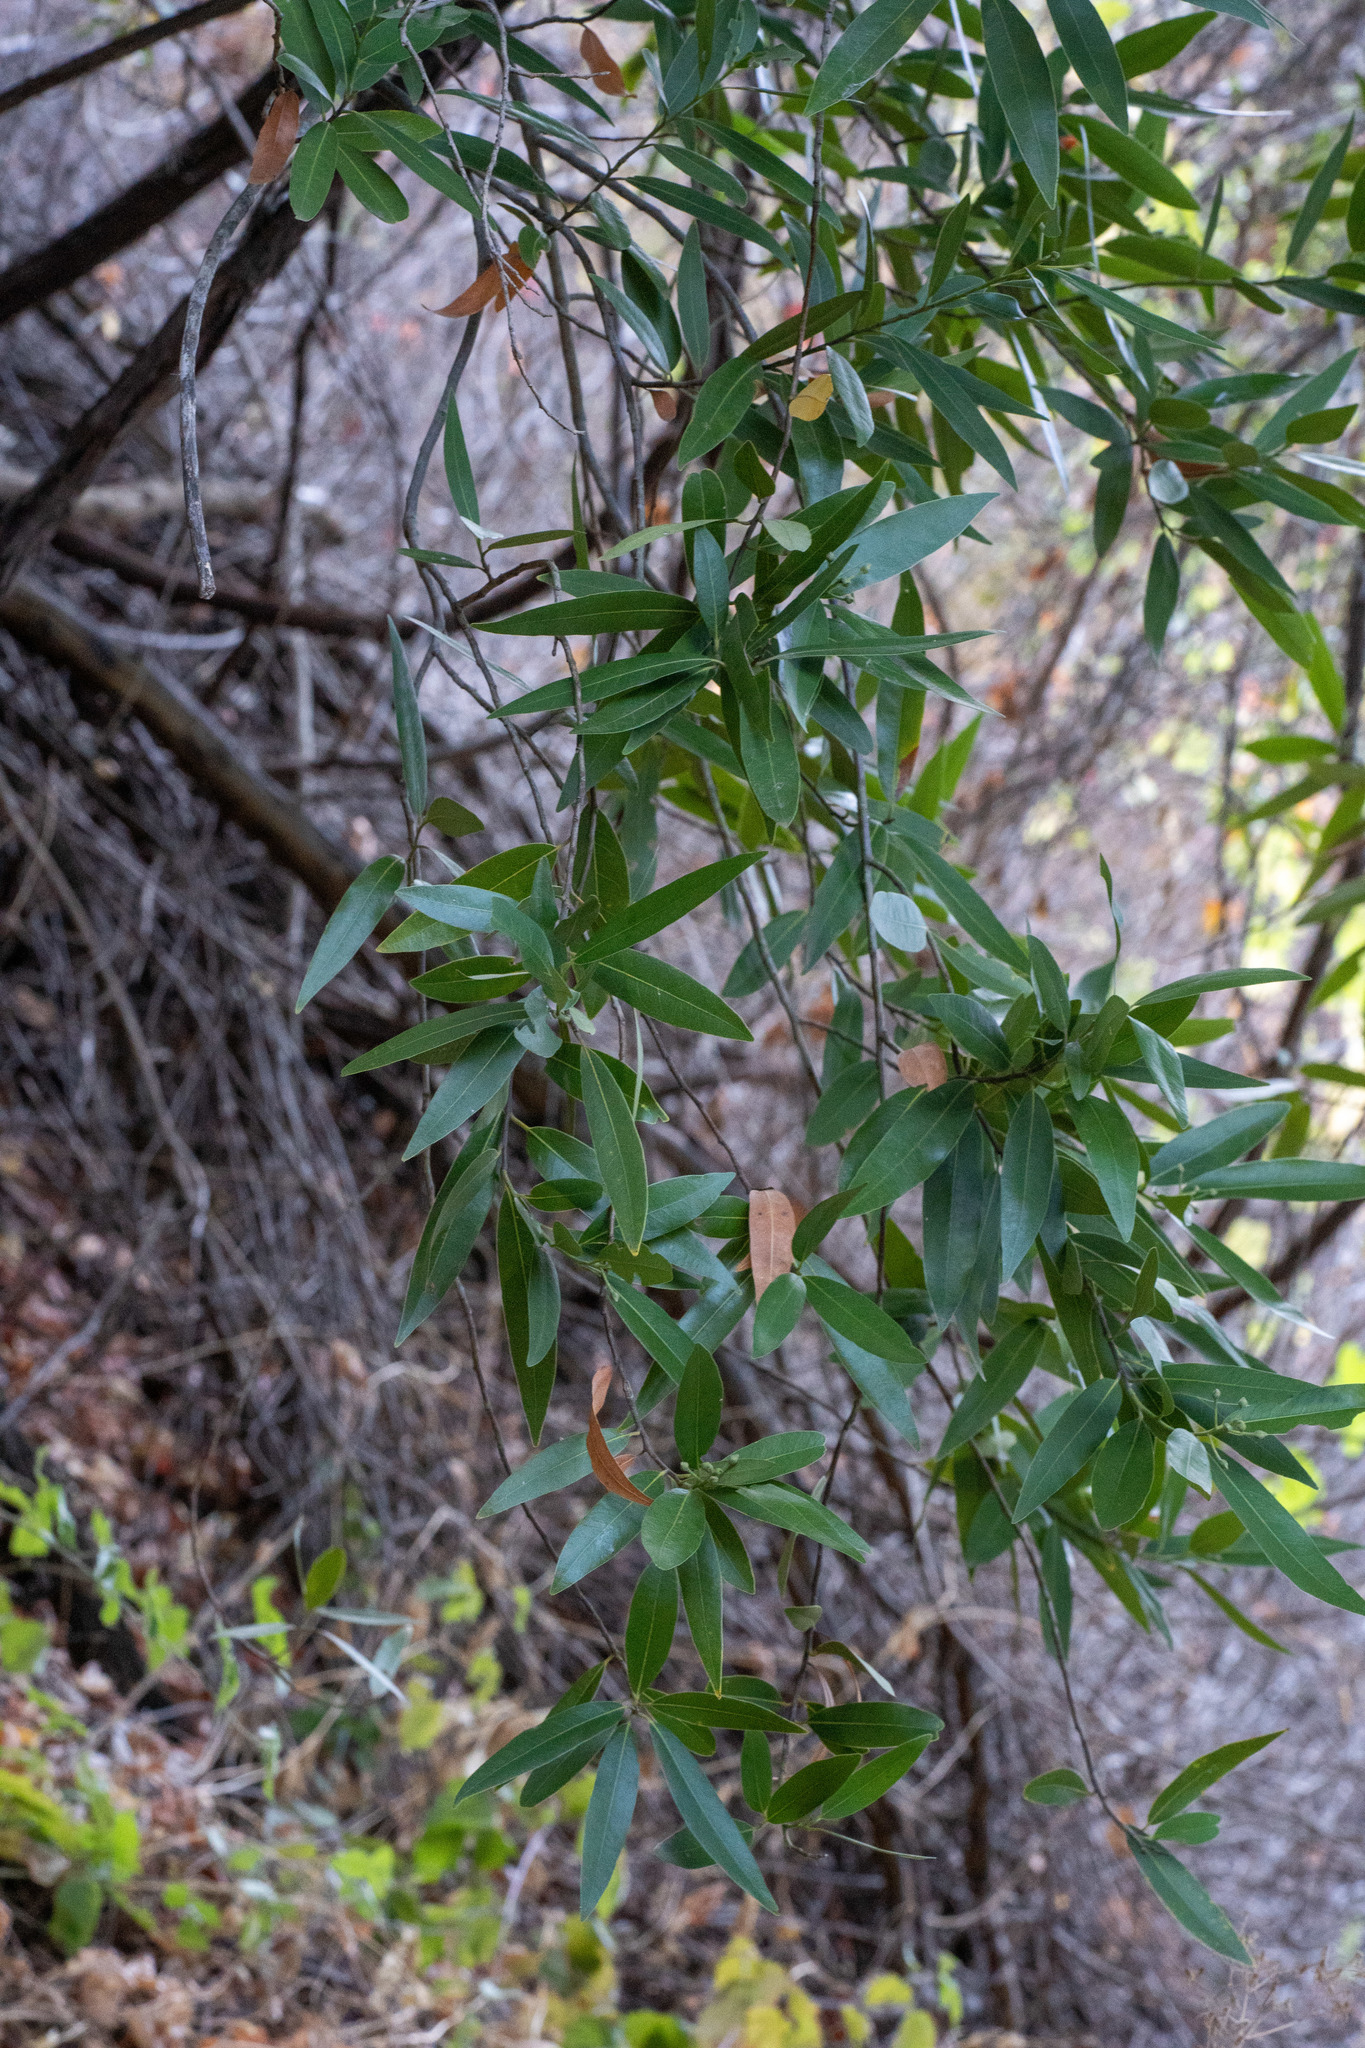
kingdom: Plantae
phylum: Tracheophyta
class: Magnoliopsida
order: Laurales
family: Lauraceae
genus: Umbellularia
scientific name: Umbellularia californica
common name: California bay
